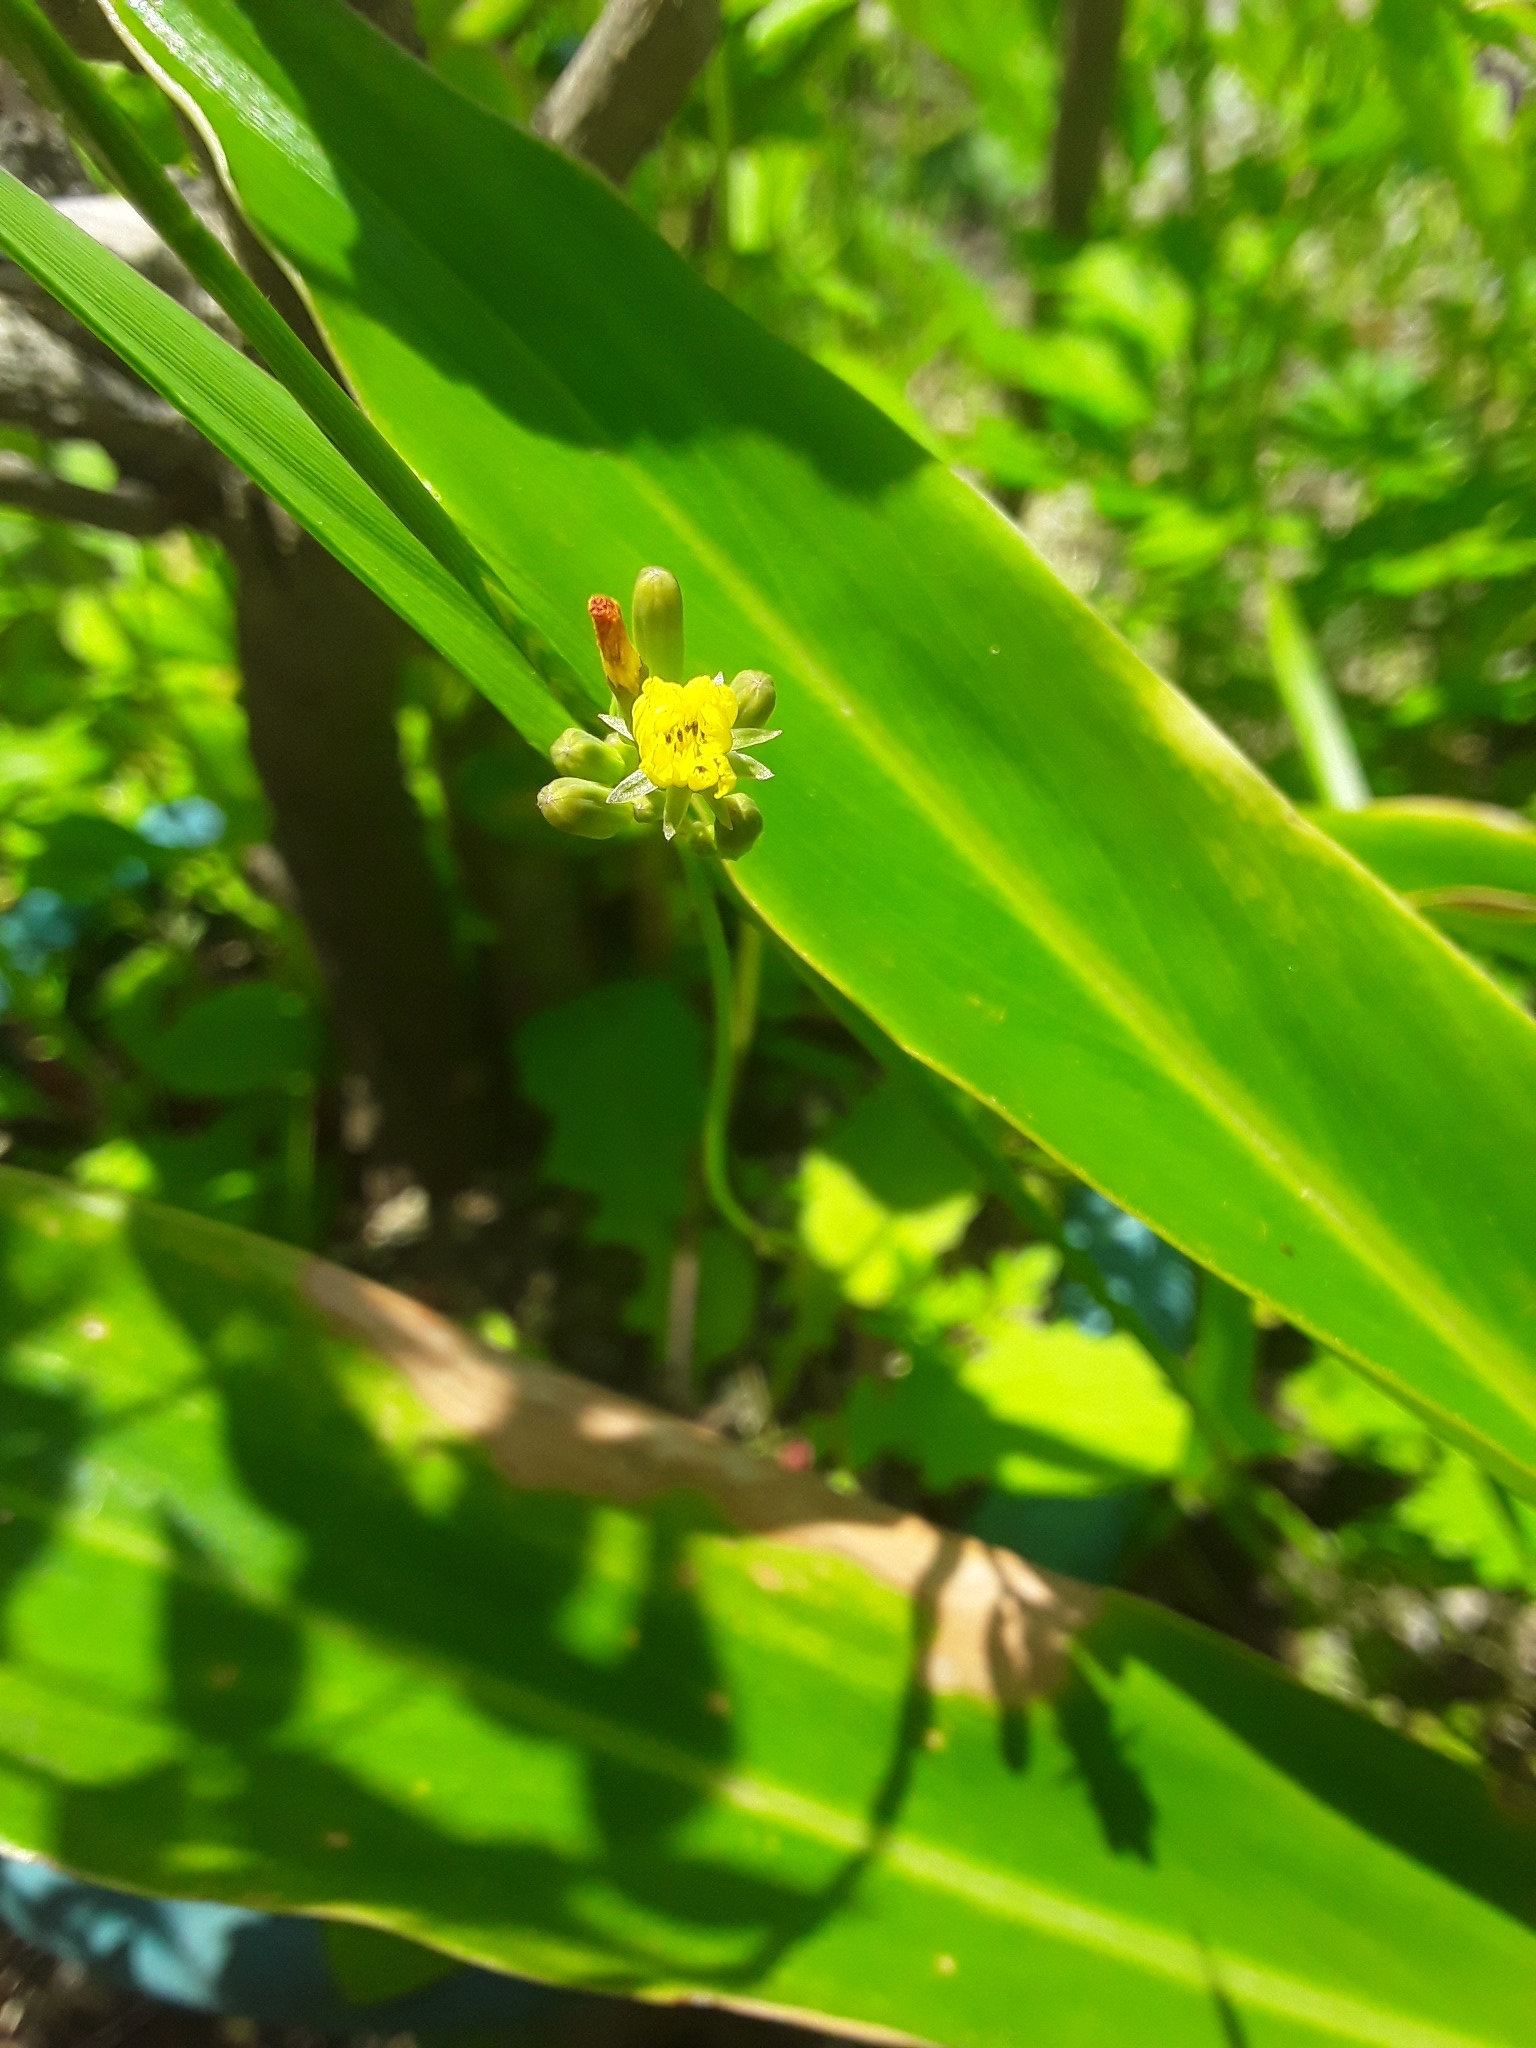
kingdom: Plantae
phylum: Tracheophyta
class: Magnoliopsida
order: Asterales
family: Asteraceae
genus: Youngia
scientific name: Youngia japonica
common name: Oriental false hawksbeard
